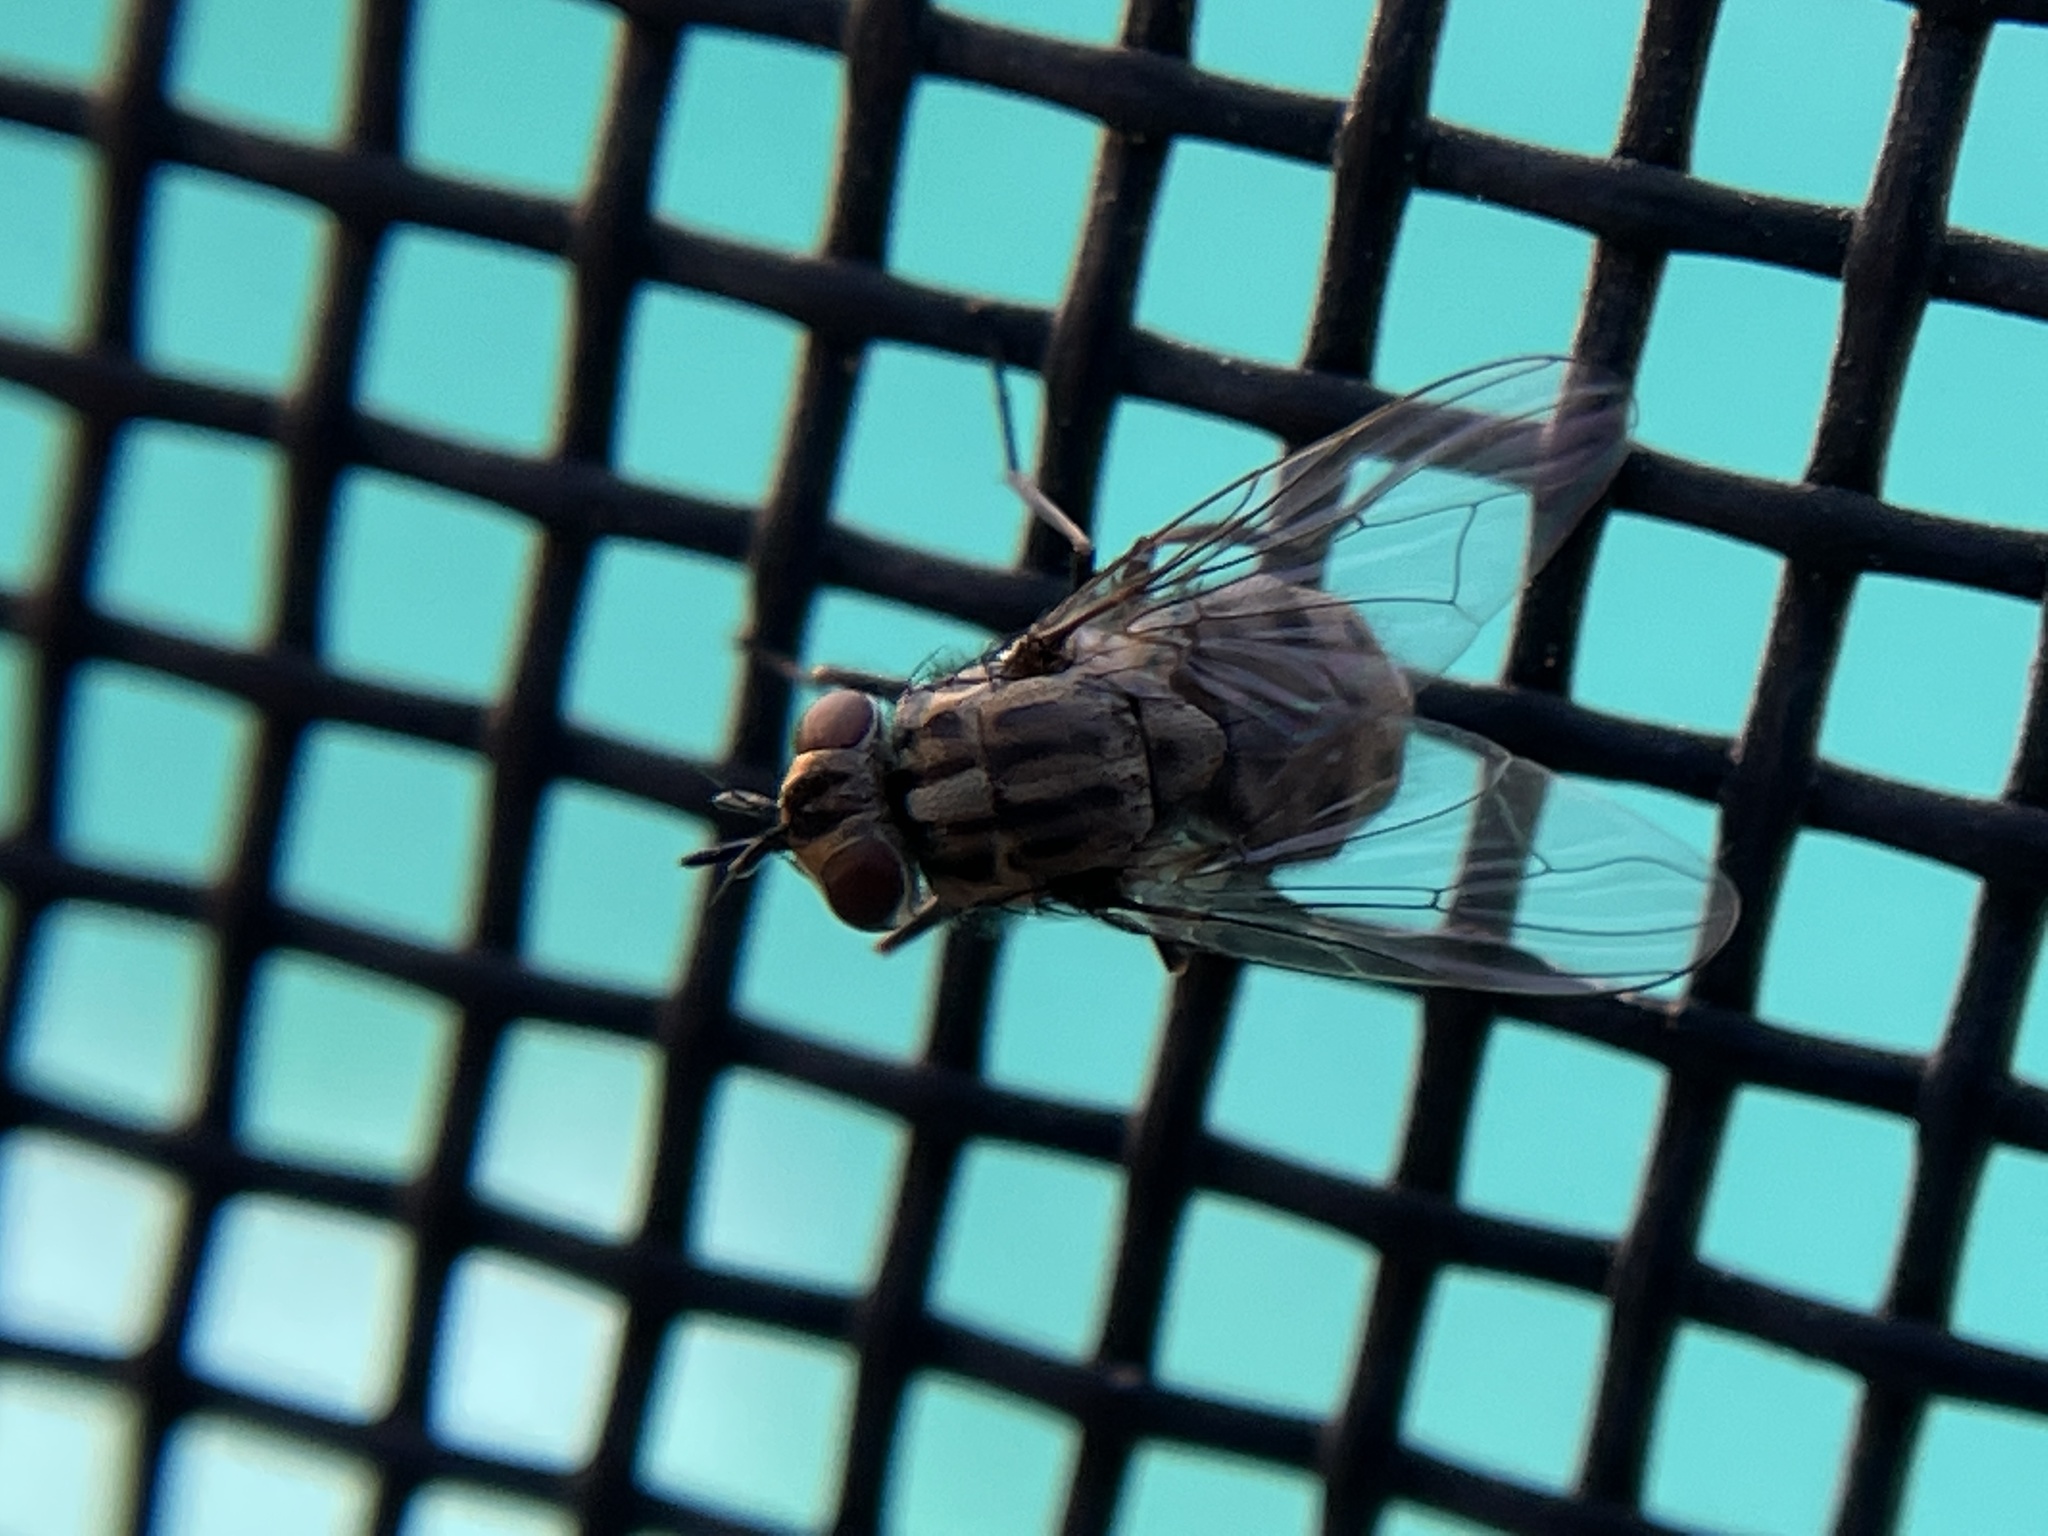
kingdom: Animalia
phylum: Arthropoda
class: Insecta
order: Diptera
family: Muscidae
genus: Stomoxys
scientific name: Stomoxys calcitrans
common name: Stable fly
